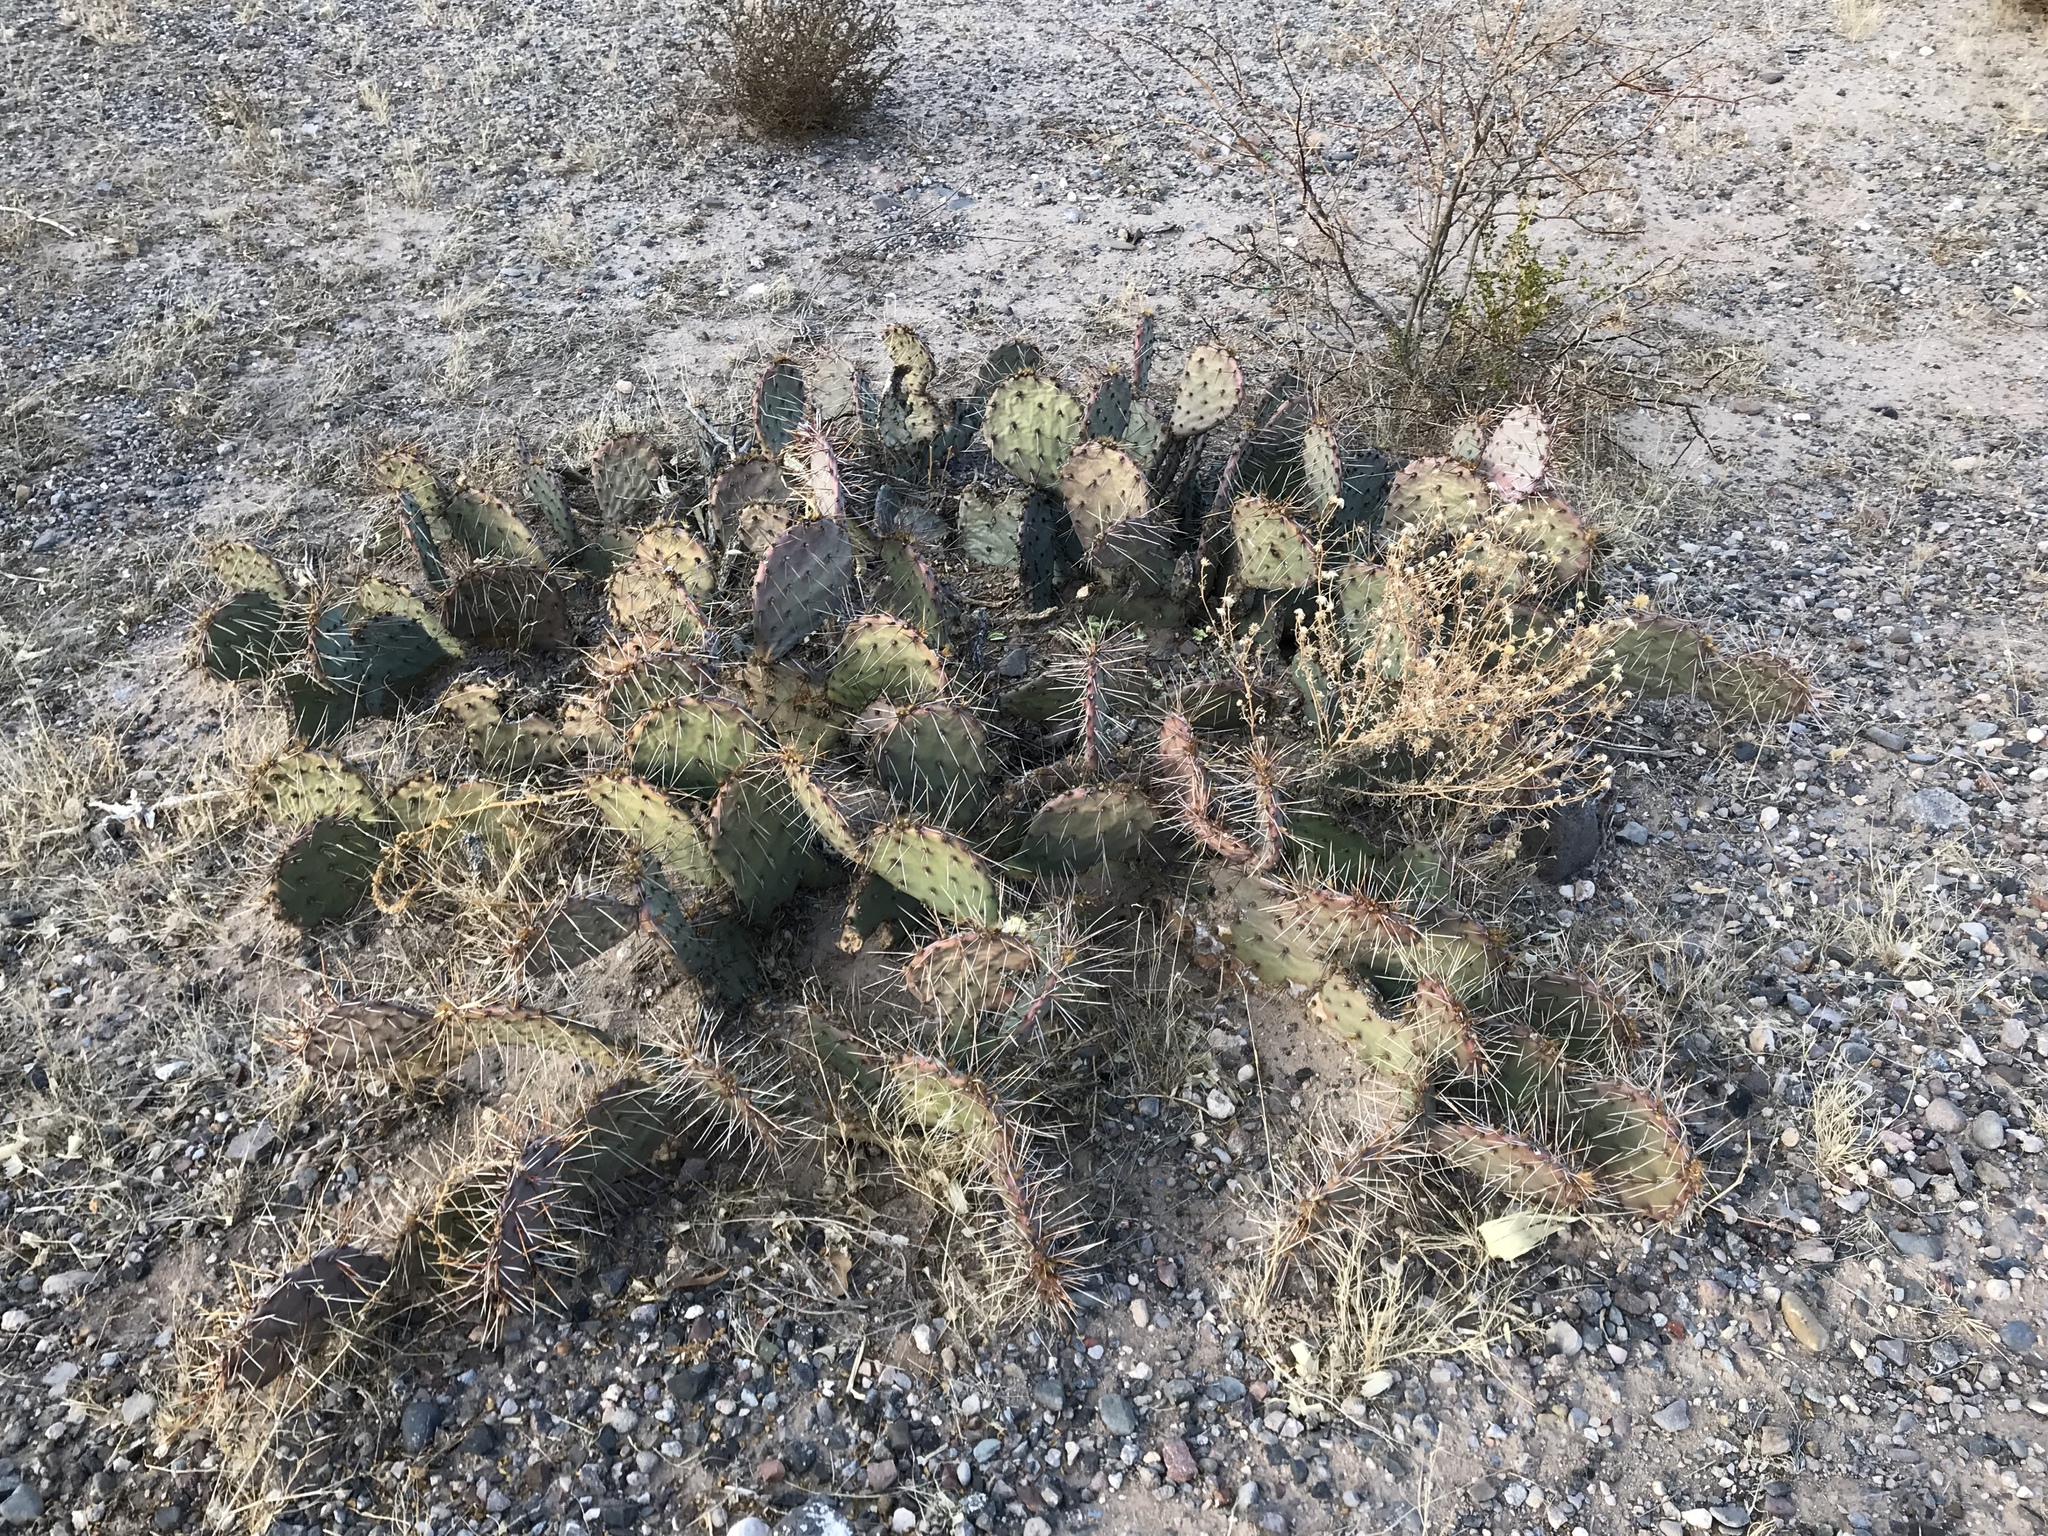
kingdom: Plantae
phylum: Tracheophyta
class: Magnoliopsida
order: Caryophyllales
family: Cactaceae
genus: Opuntia
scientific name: Opuntia phaeacantha
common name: New mexico prickly-pear
